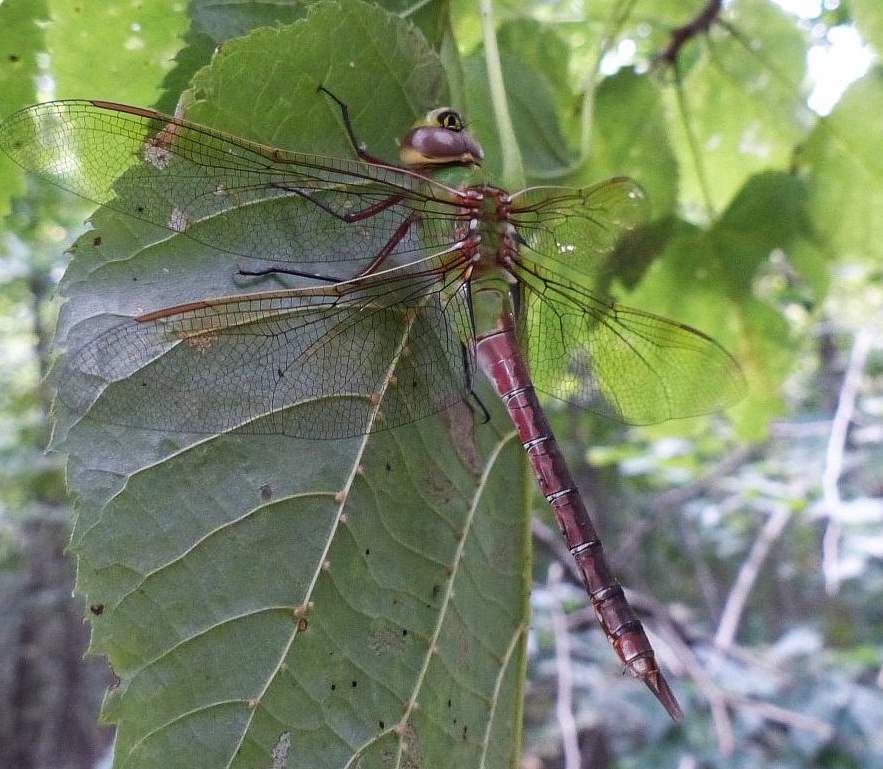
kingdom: Animalia
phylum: Arthropoda
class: Insecta
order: Odonata
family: Aeshnidae
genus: Anax
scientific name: Anax junius
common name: Common green darner
